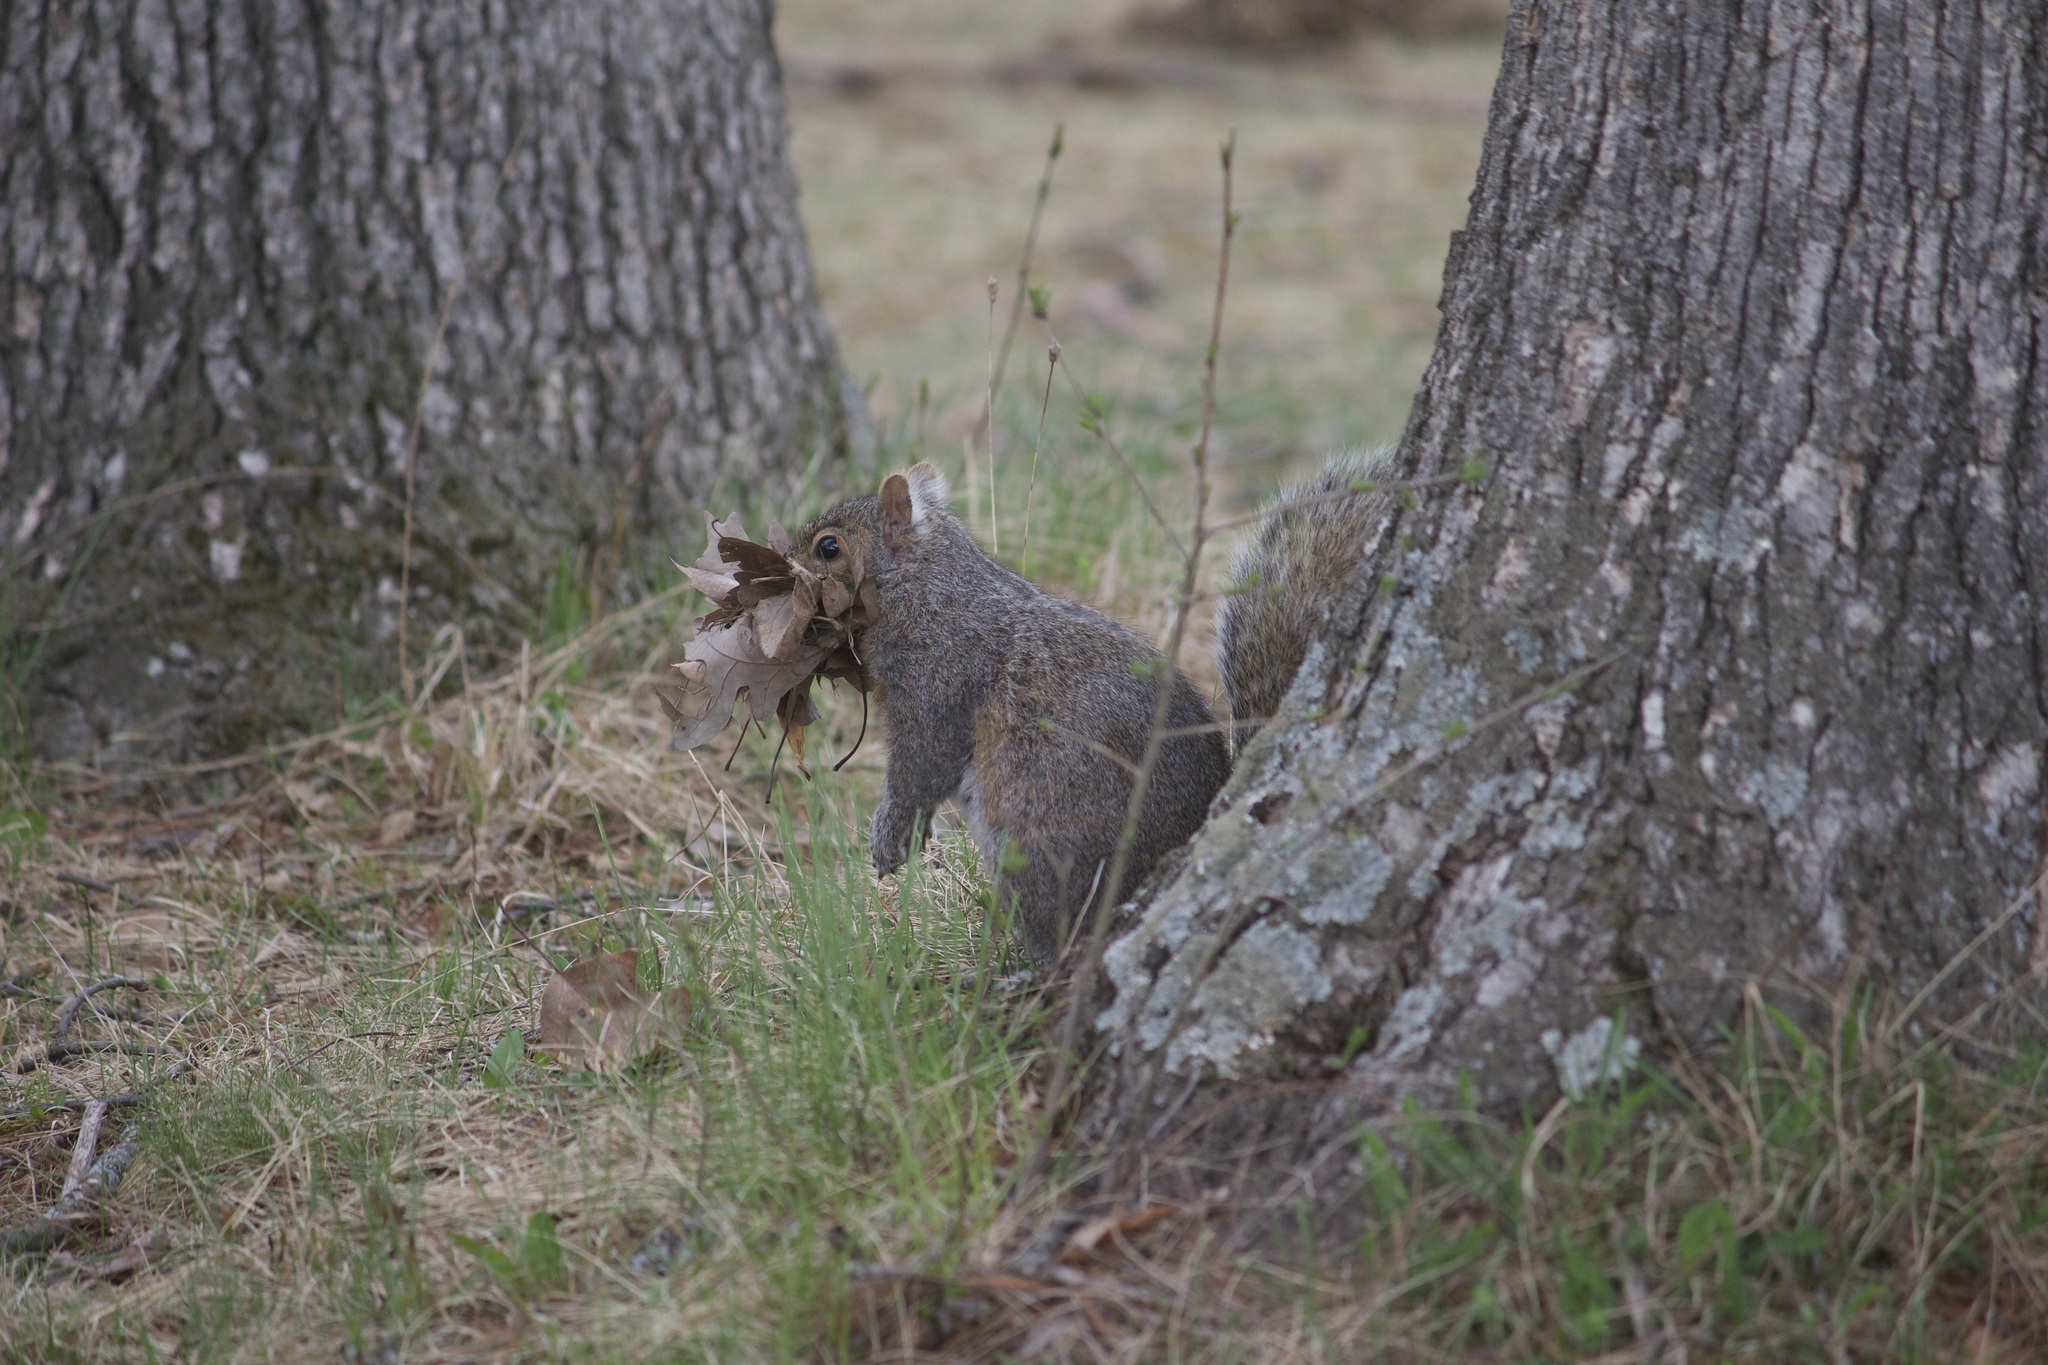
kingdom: Animalia
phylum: Chordata
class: Mammalia
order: Rodentia
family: Sciuridae
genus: Sciurus
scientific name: Sciurus carolinensis
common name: Eastern gray squirrel
